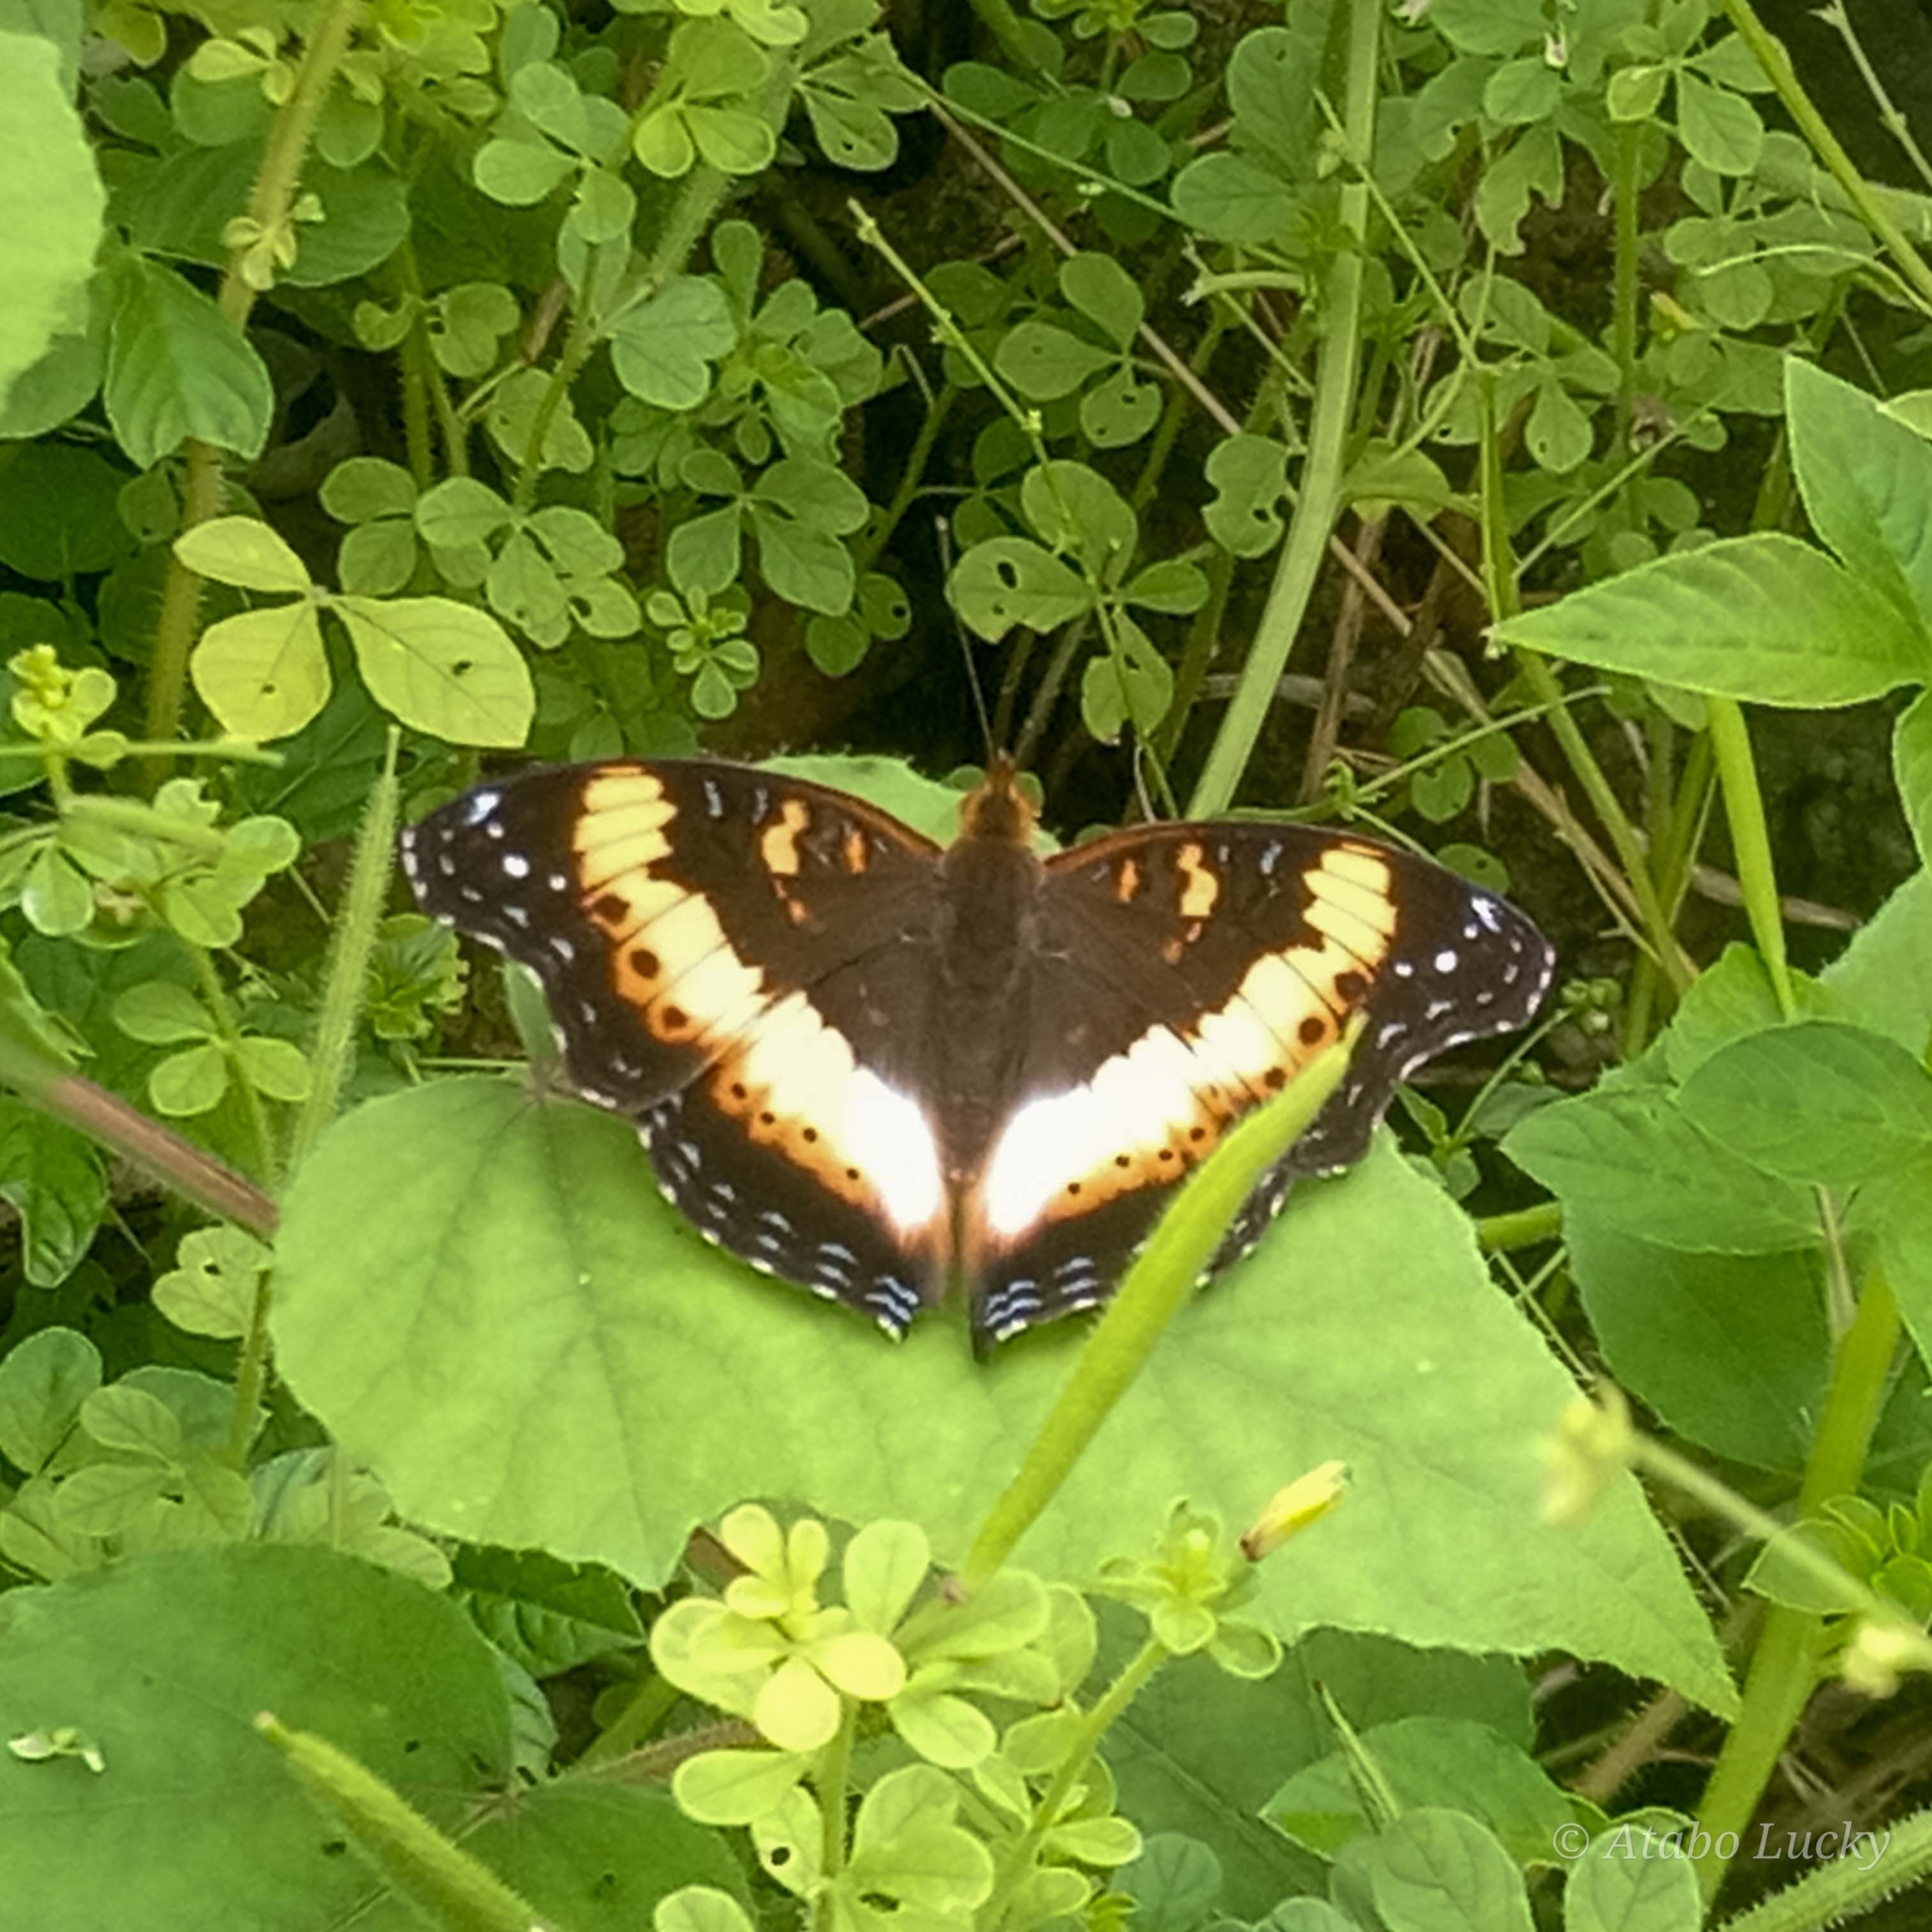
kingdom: Animalia
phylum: Arthropoda
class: Insecta
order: Lepidoptera
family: Nymphalidae
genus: Precis
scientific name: Precis pelarga
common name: Fashion commodore
